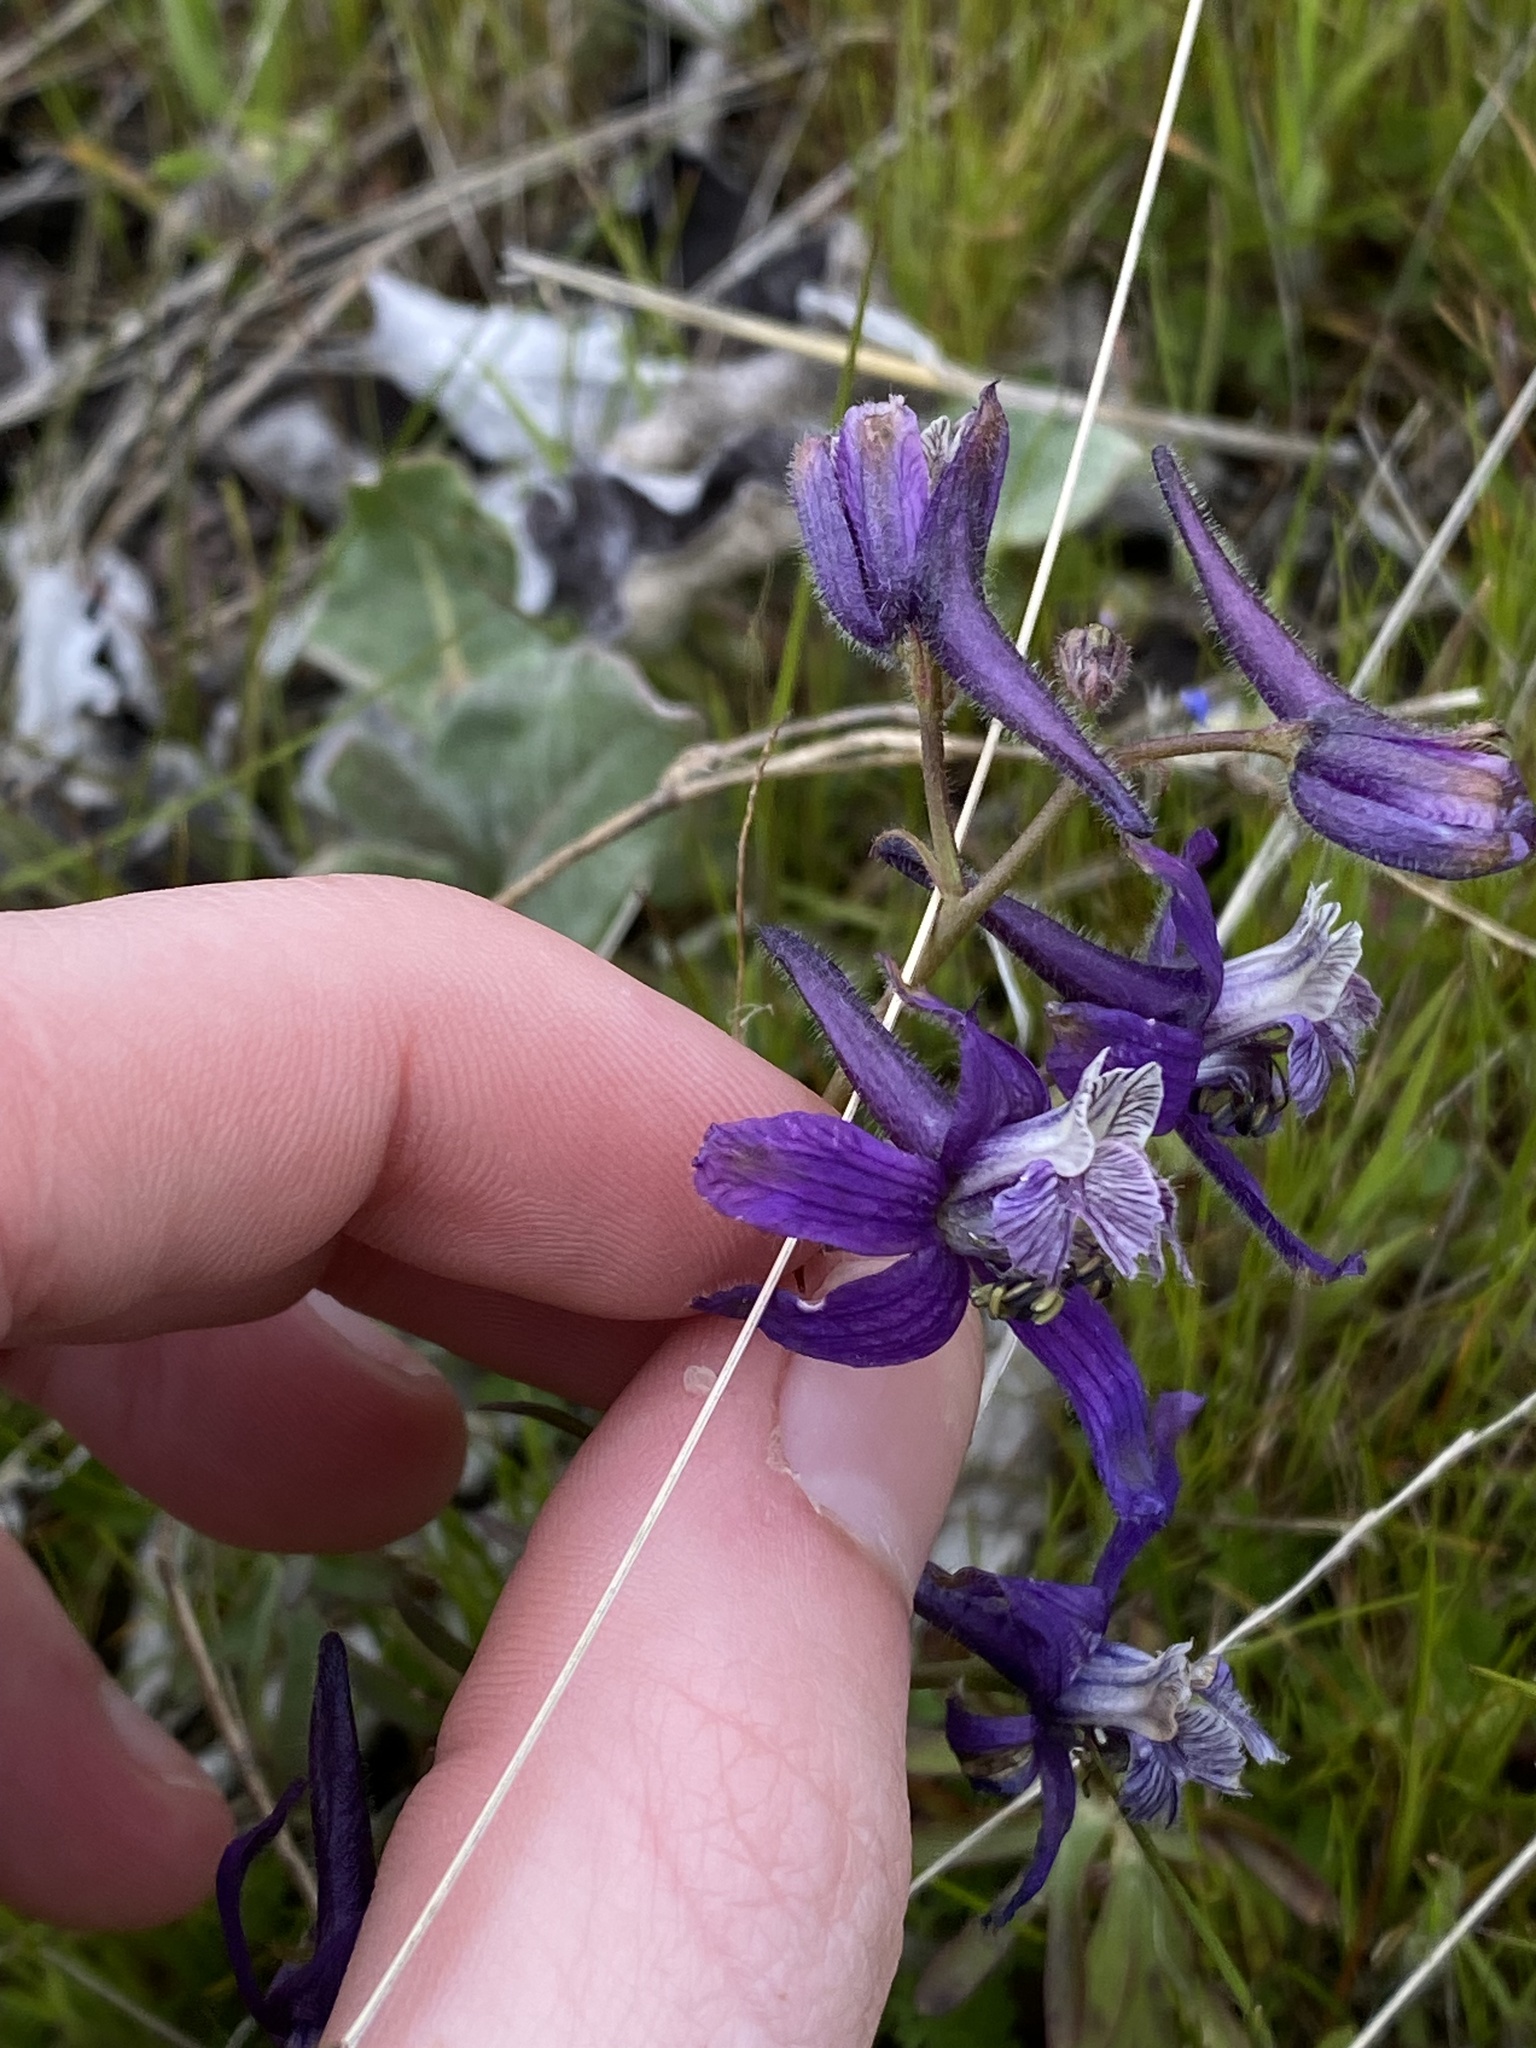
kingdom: Plantae
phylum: Tracheophyta
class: Magnoliopsida
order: Ranunculales
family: Ranunculaceae
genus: Delphinium
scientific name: Delphinium nuttallianum
